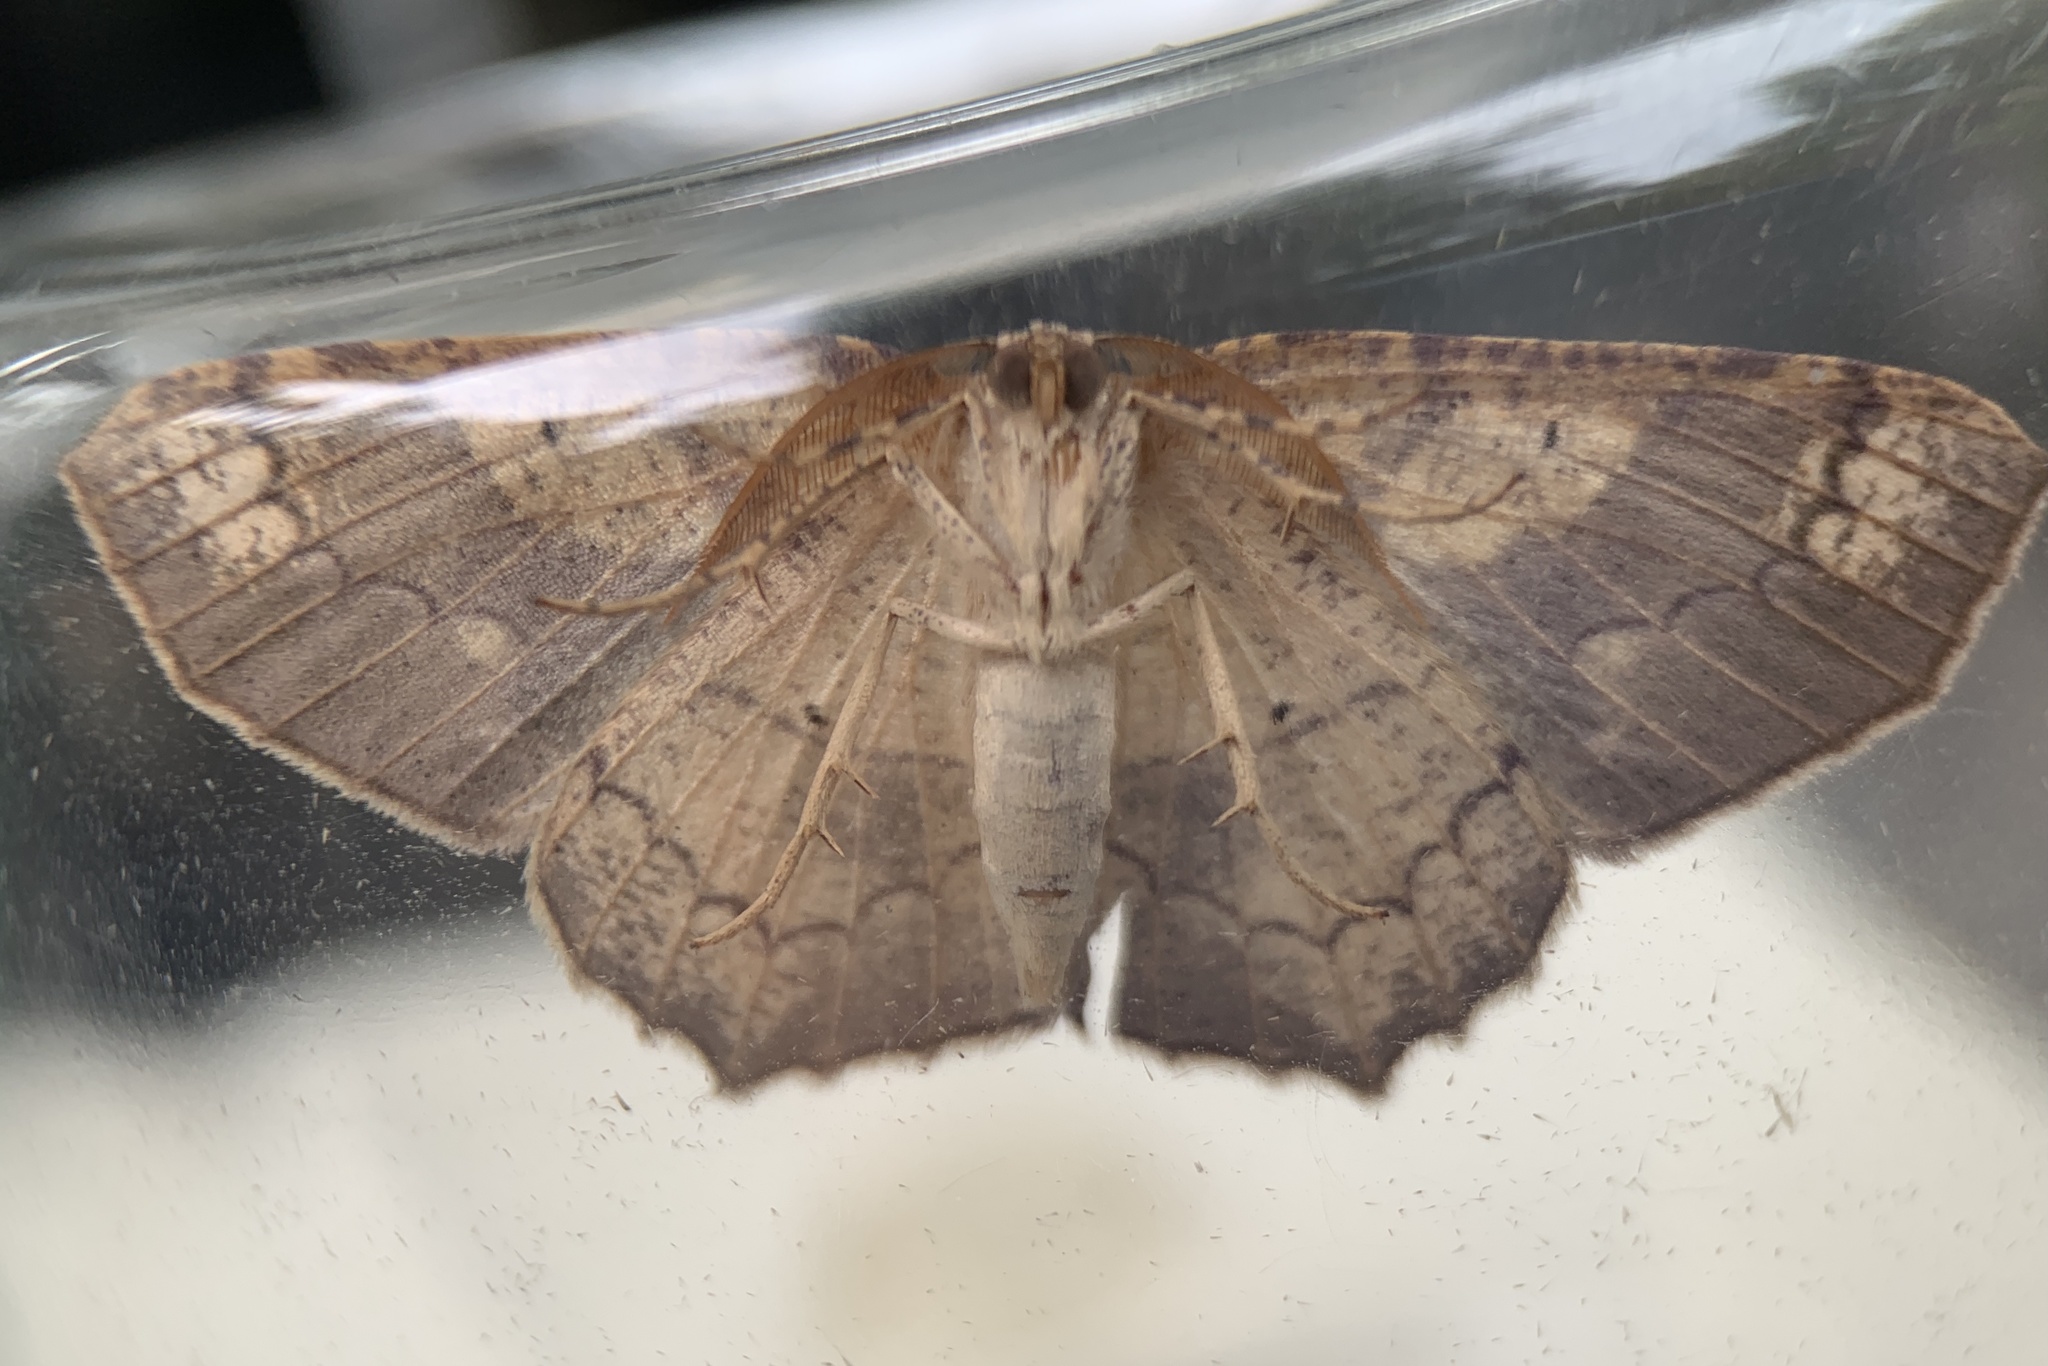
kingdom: Animalia
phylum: Arthropoda
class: Insecta
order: Lepidoptera
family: Geometridae
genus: Besma
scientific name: Besma quercivoraria
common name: Oak besma
